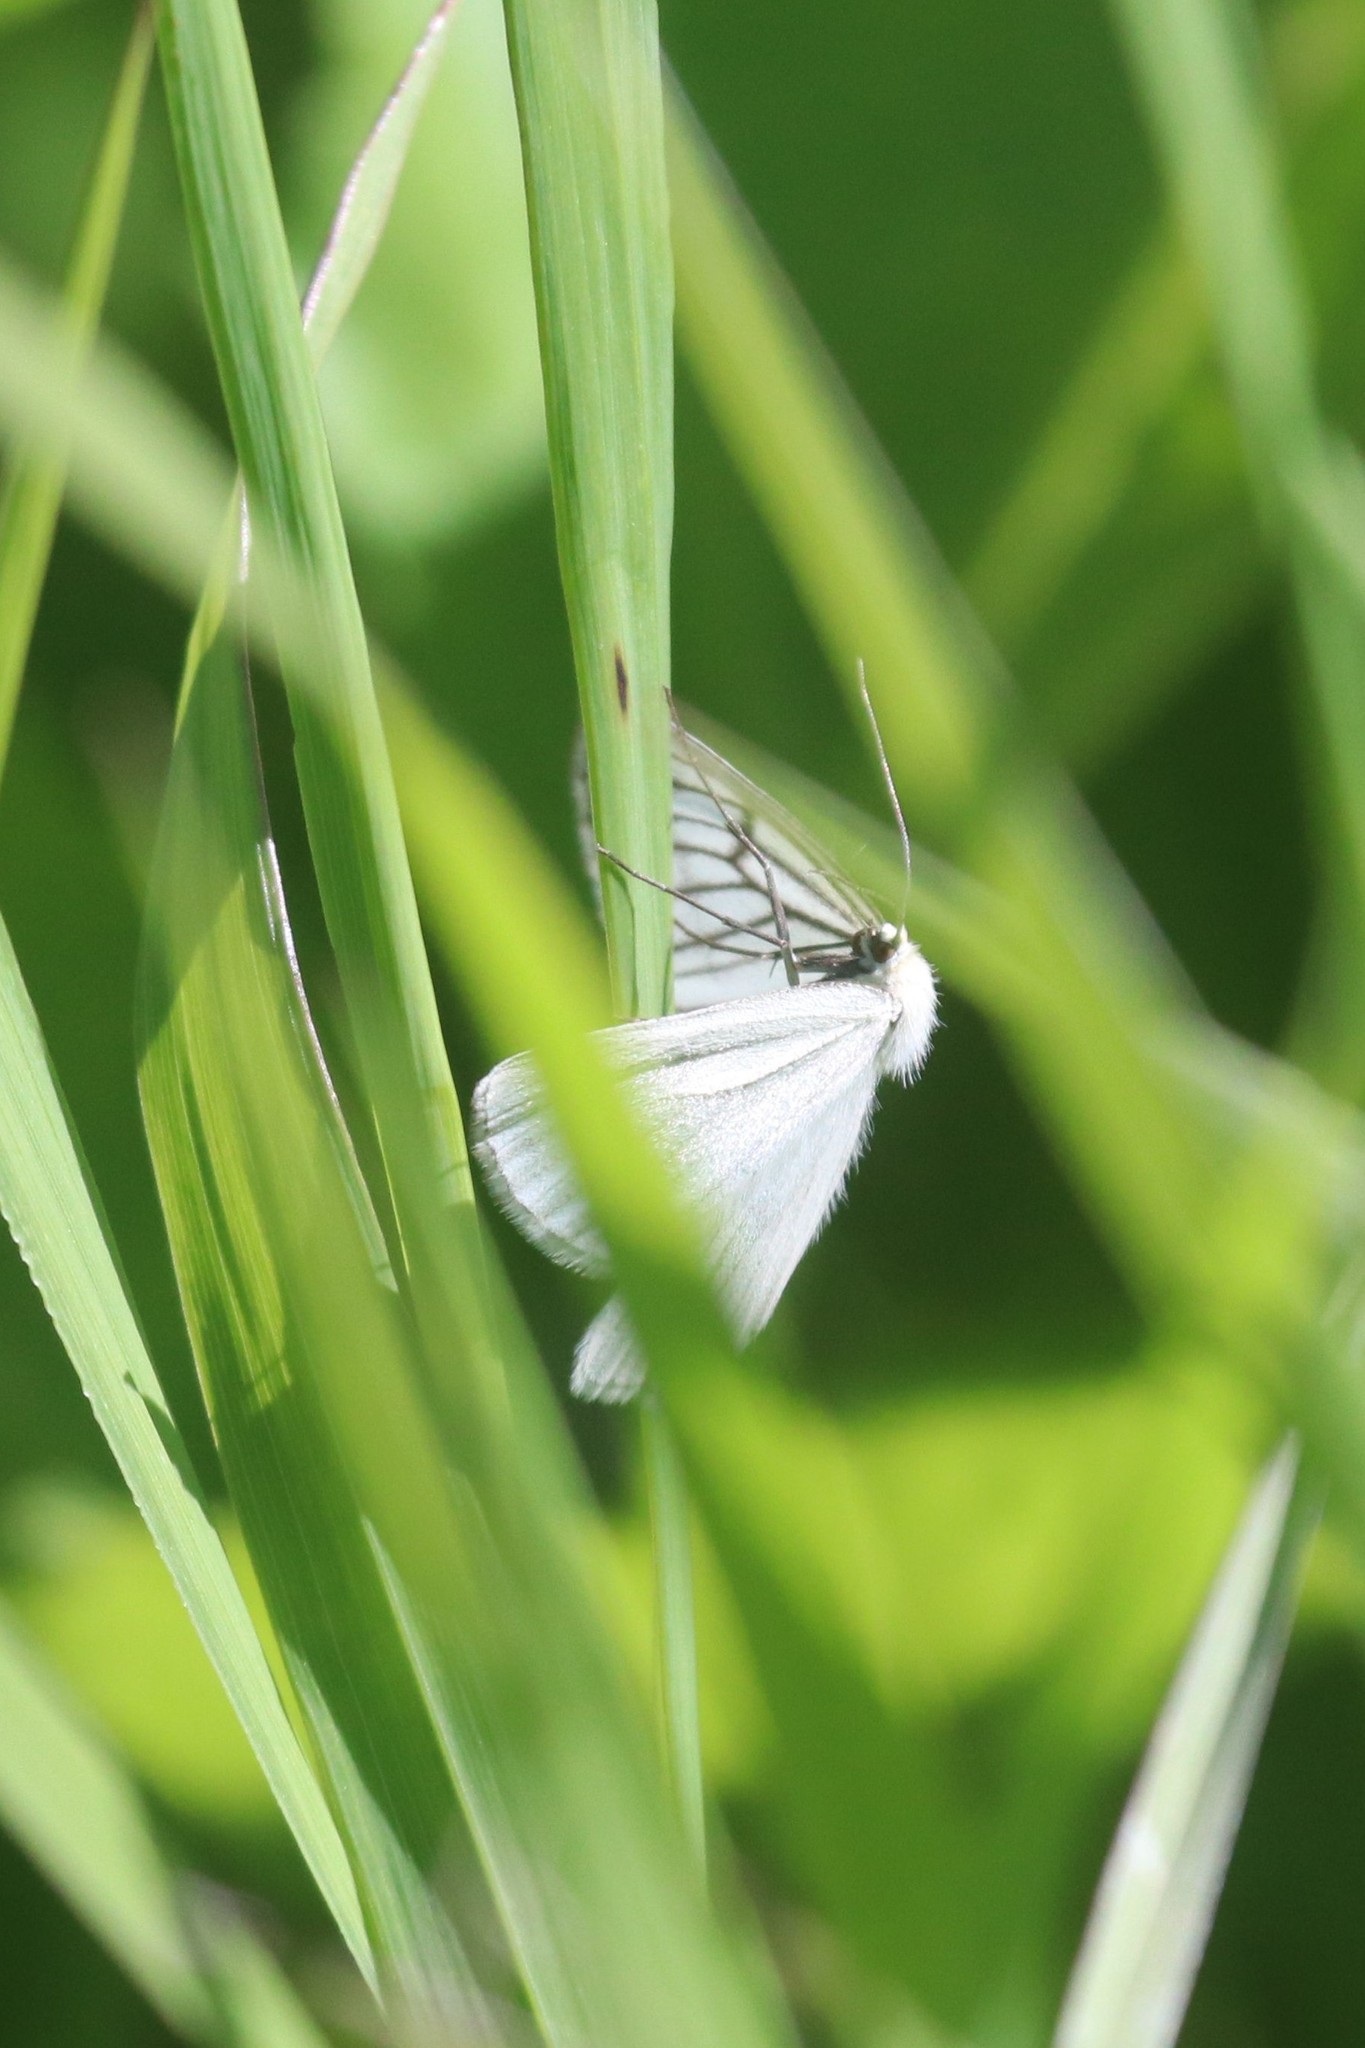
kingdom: Animalia
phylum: Arthropoda
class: Insecta
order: Lepidoptera
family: Geometridae
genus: Siona
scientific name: Siona lineata
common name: Black-veined moth
